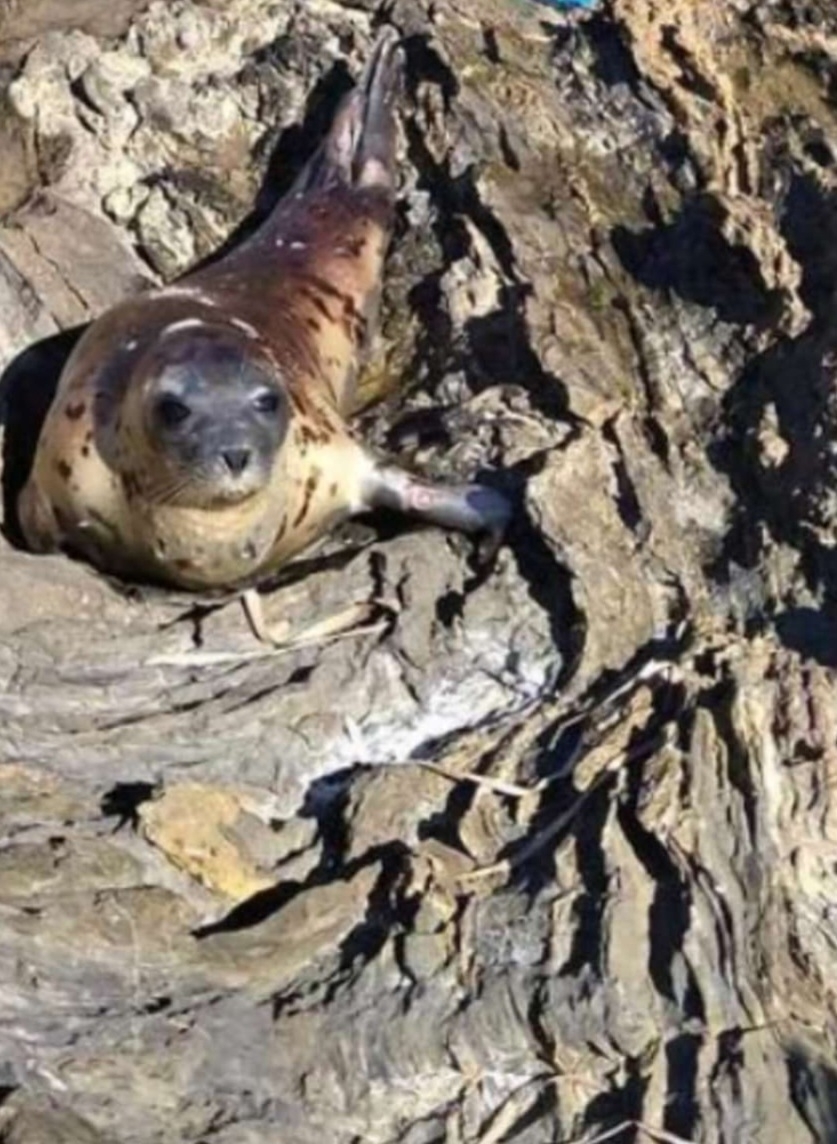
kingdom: Animalia
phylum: Chordata
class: Mammalia
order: Carnivora
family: Phocidae
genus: Pagophilus
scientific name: Pagophilus groenlandicus
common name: Harp seal
